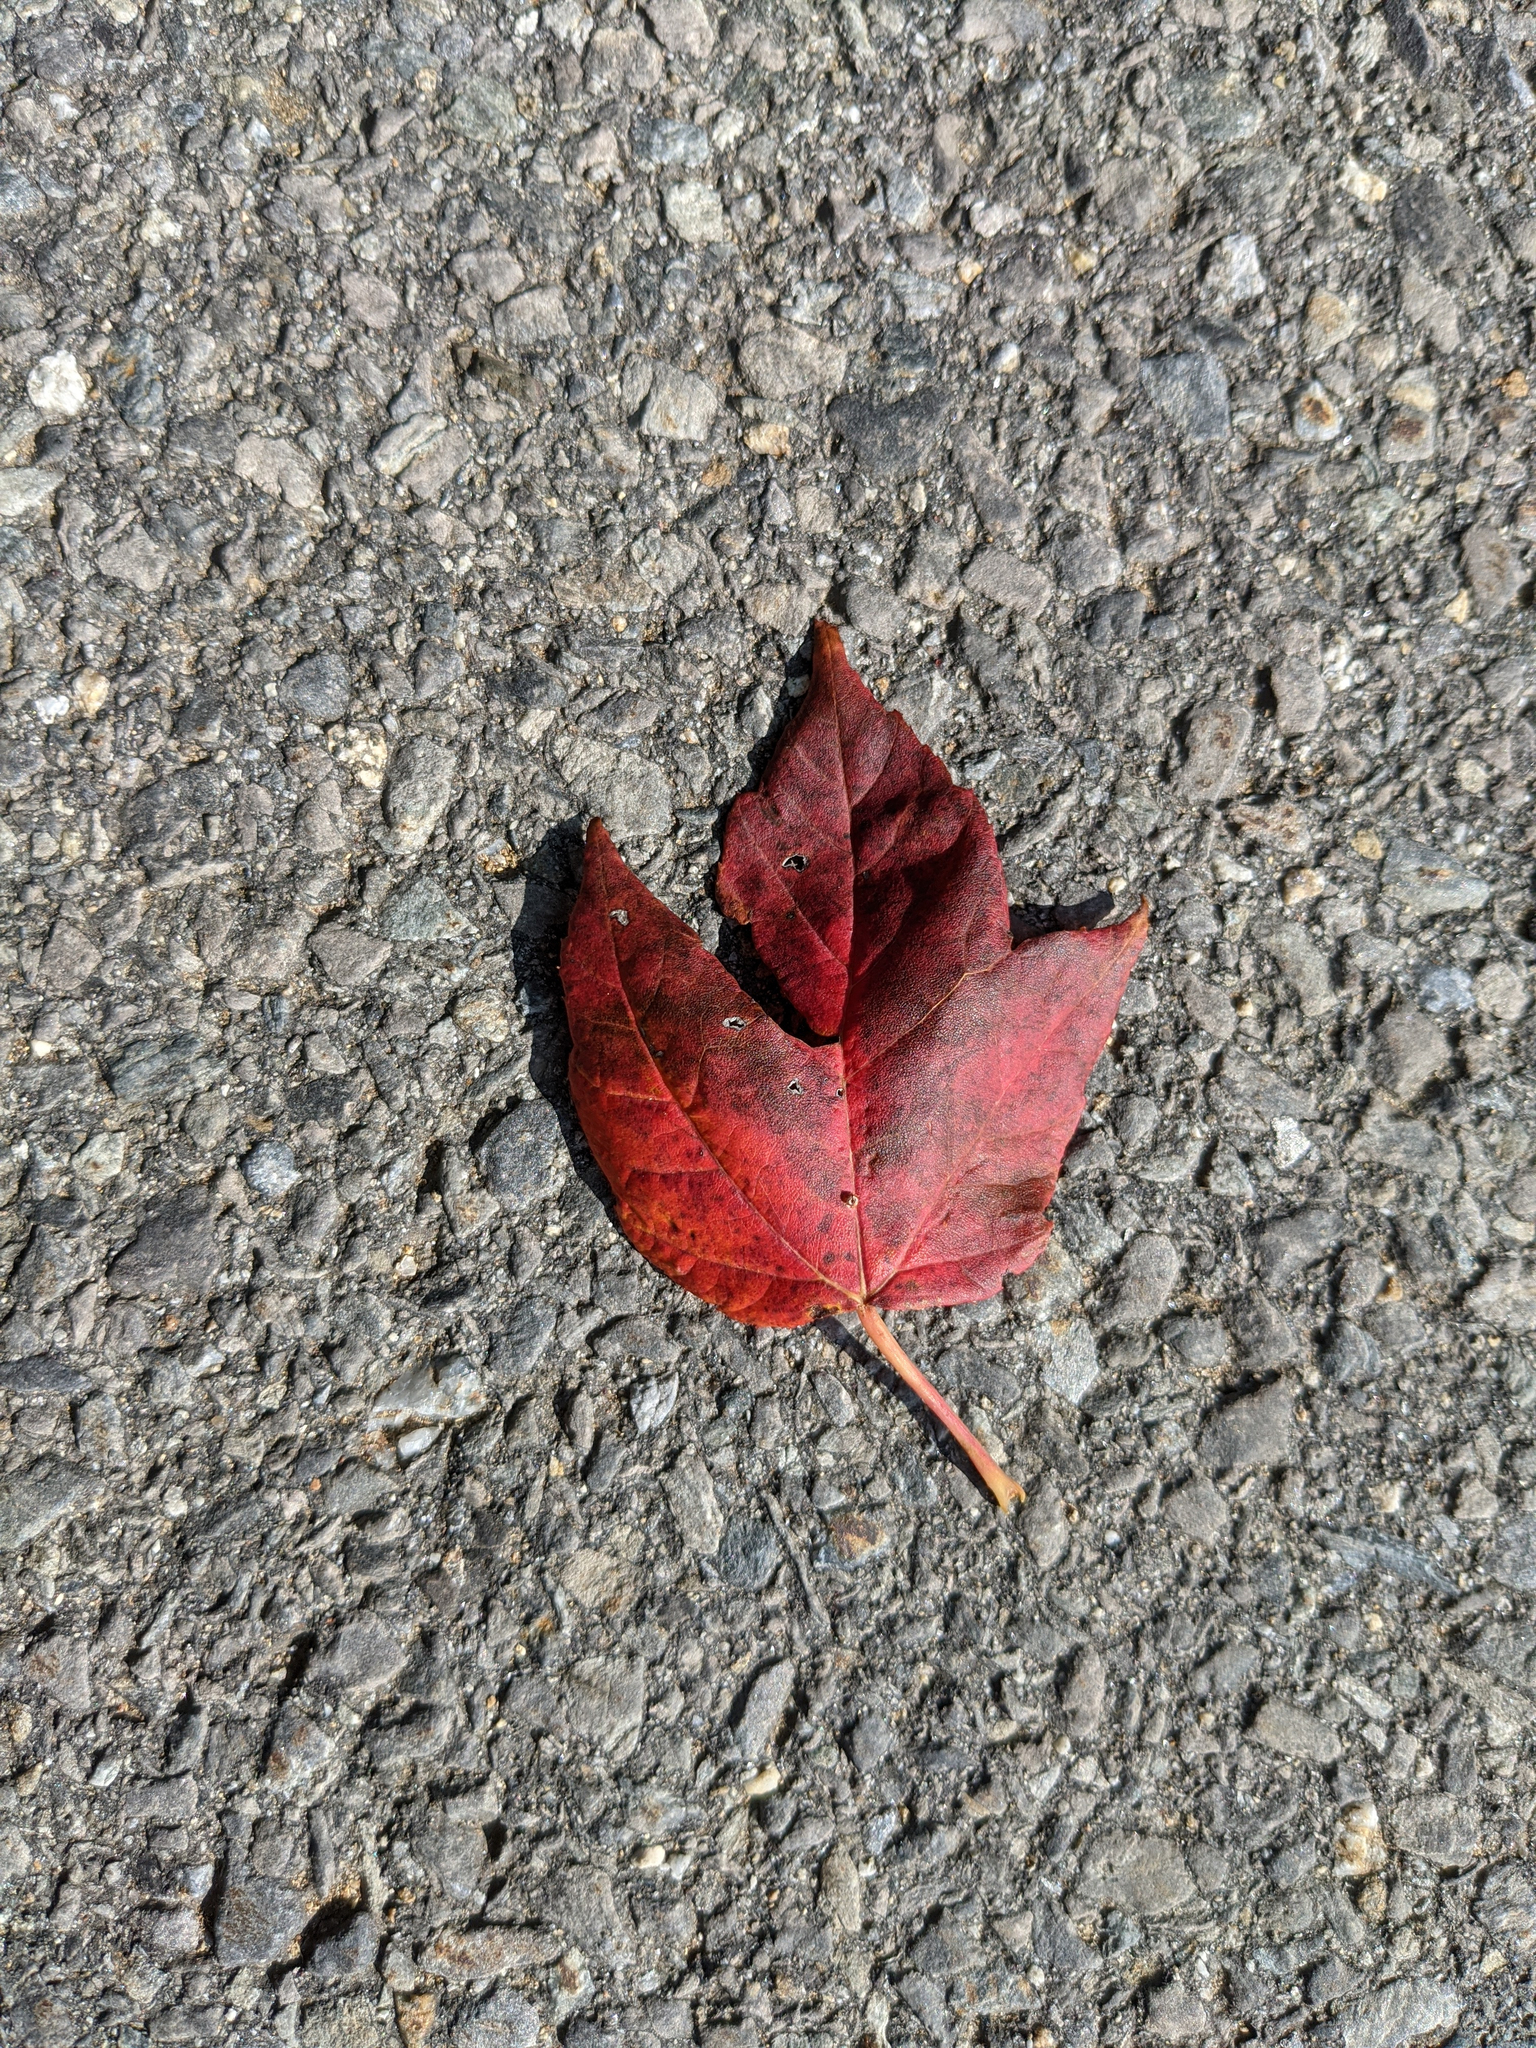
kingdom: Plantae
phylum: Tracheophyta
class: Magnoliopsida
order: Sapindales
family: Sapindaceae
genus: Acer
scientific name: Acer rubrum
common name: Red maple
